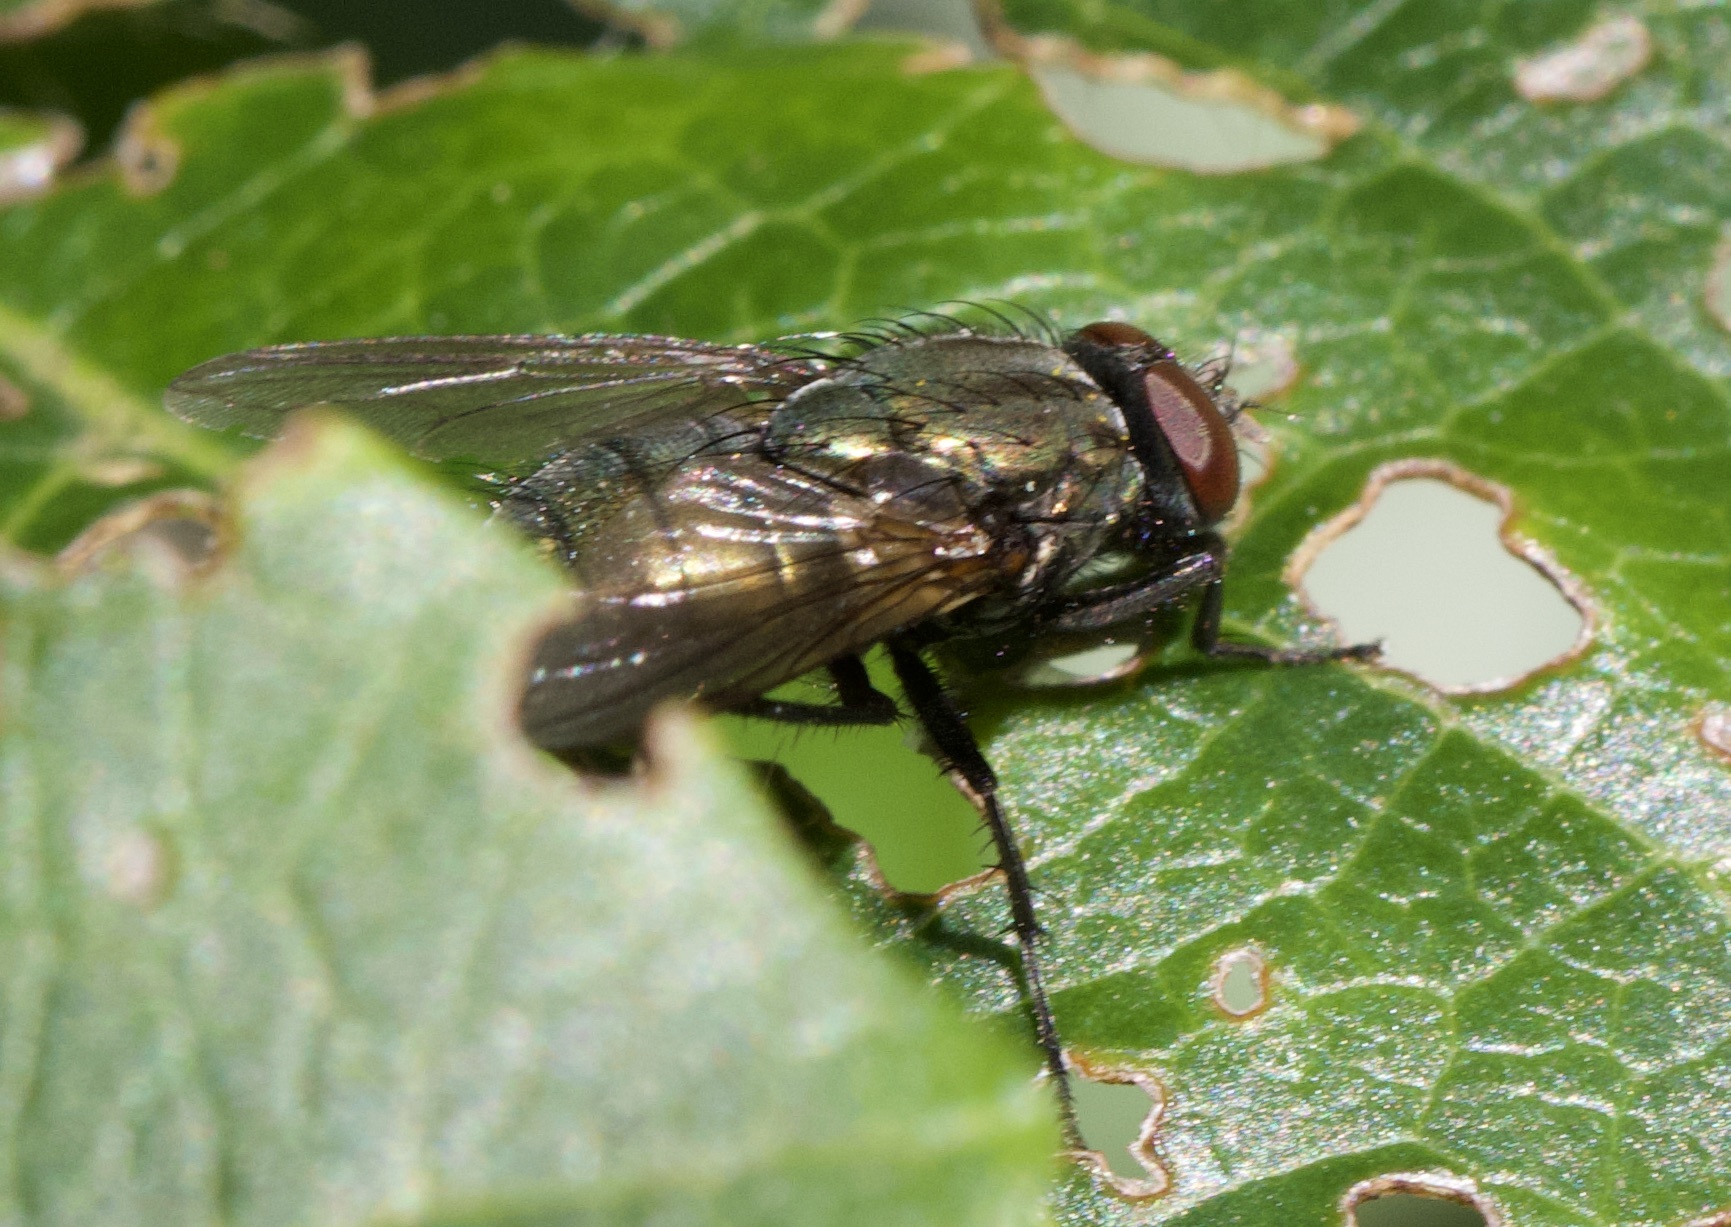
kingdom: Animalia
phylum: Arthropoda
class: Insecta
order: Diptera
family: Muscidae
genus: Dasyphora
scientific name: Dasyphora cyanella
